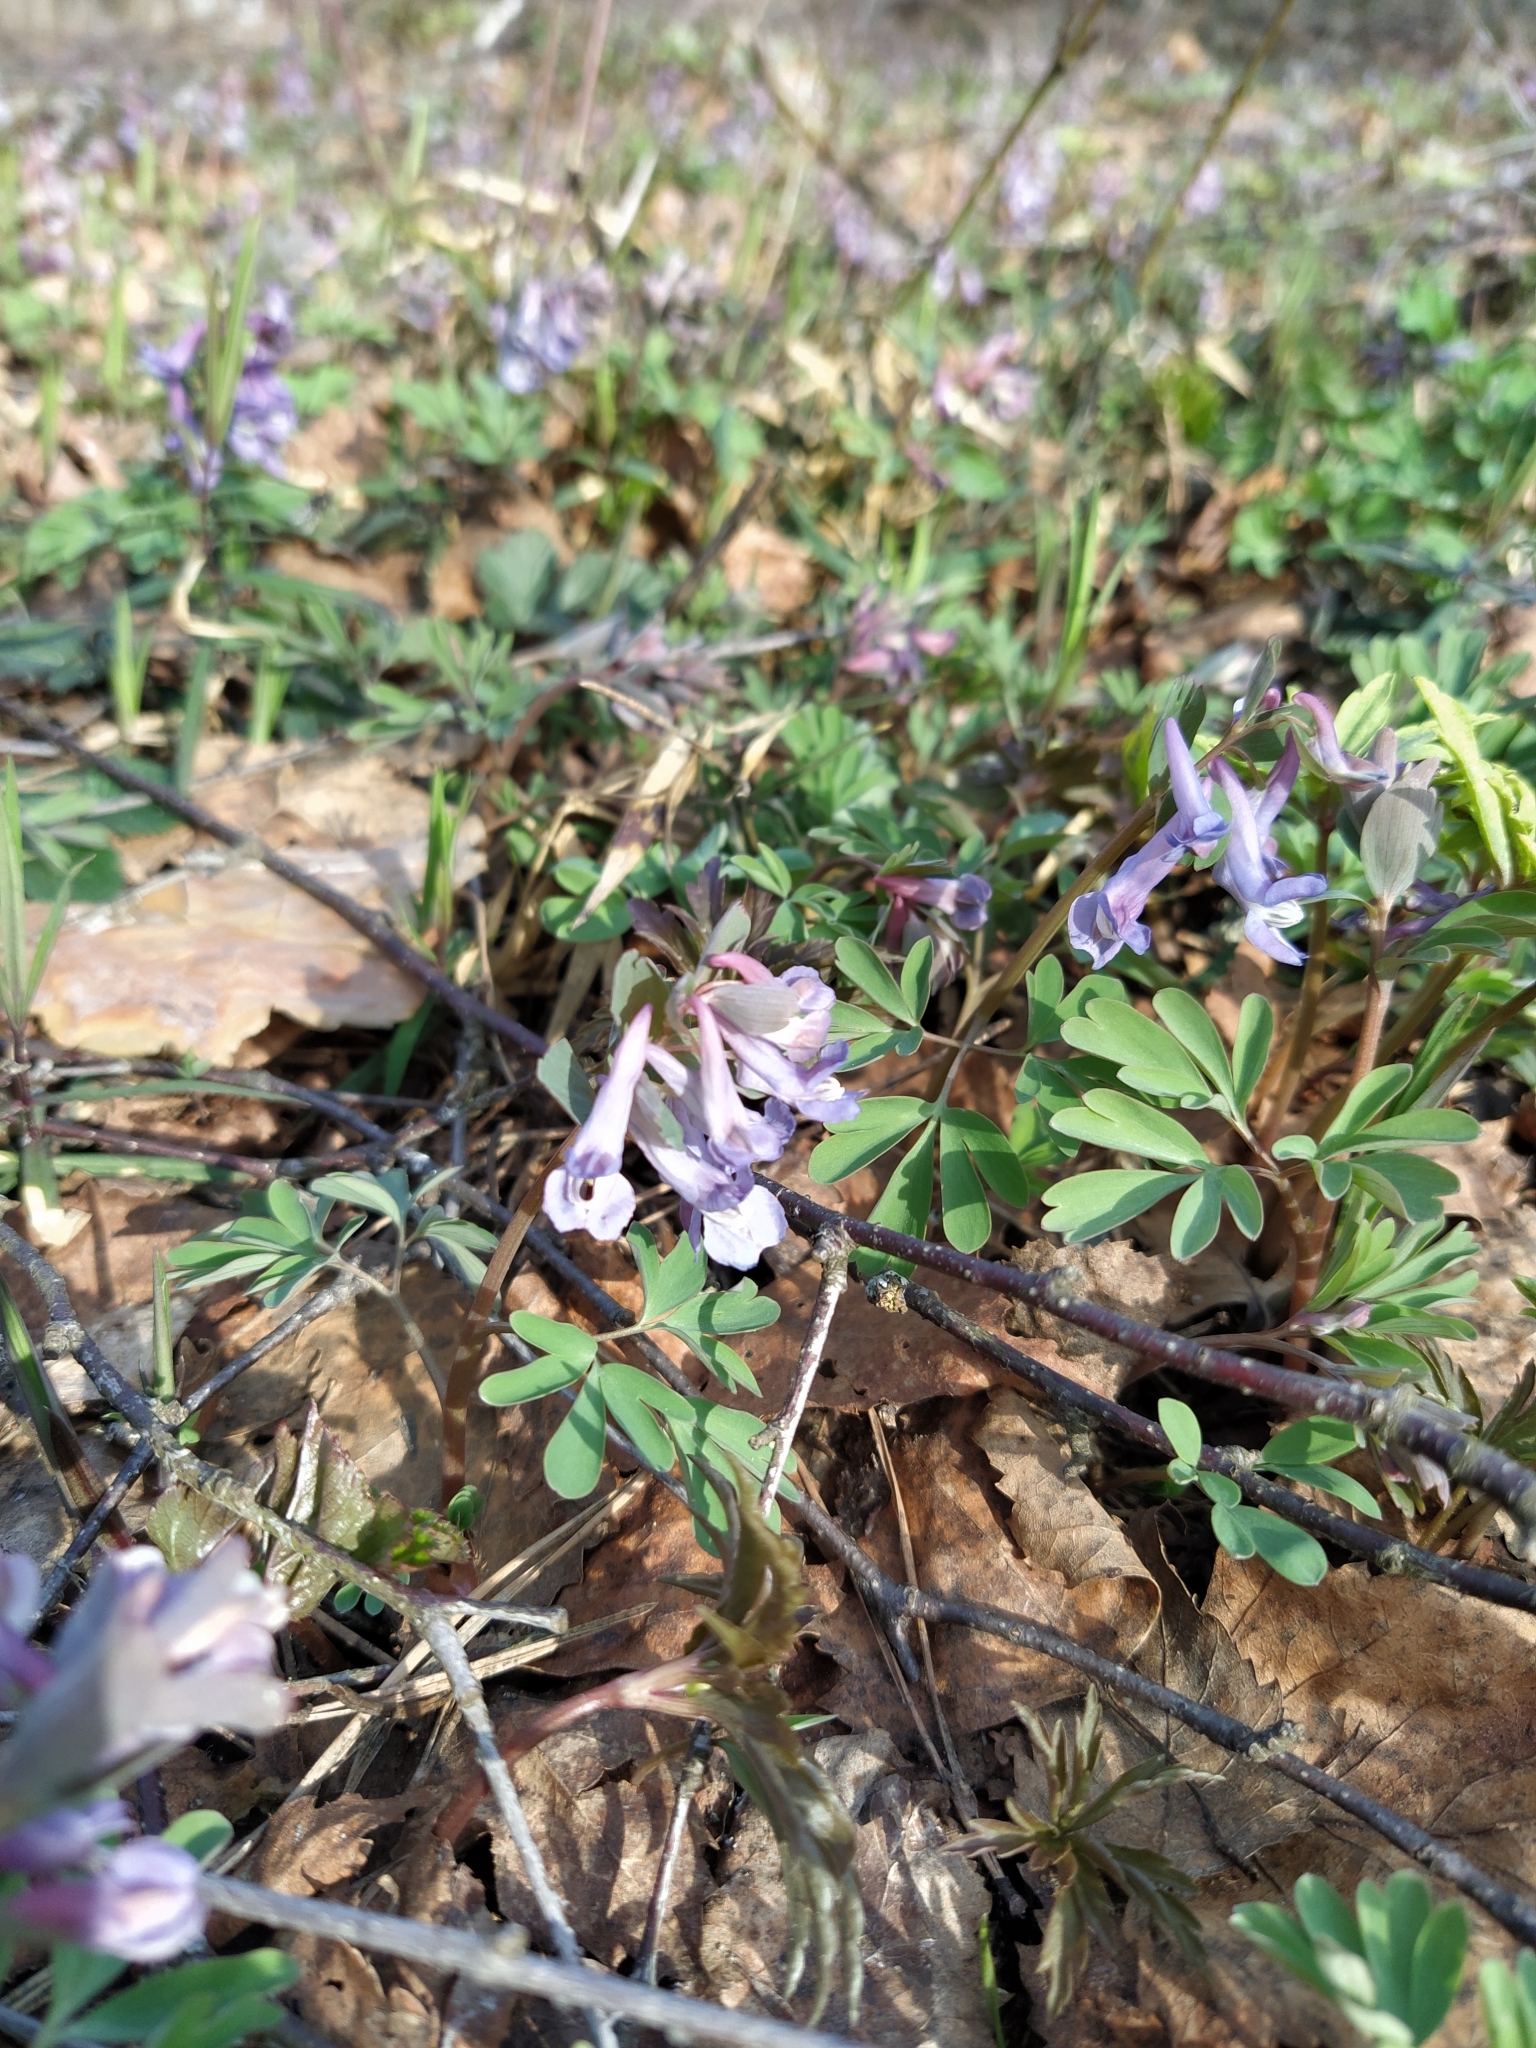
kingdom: Plantae
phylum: Tracheophyta
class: Magnoliopsida
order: Ranunculales
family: Papaveraceae
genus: Corydalis
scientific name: Corydalis solida
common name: Bird-in-a-bush
